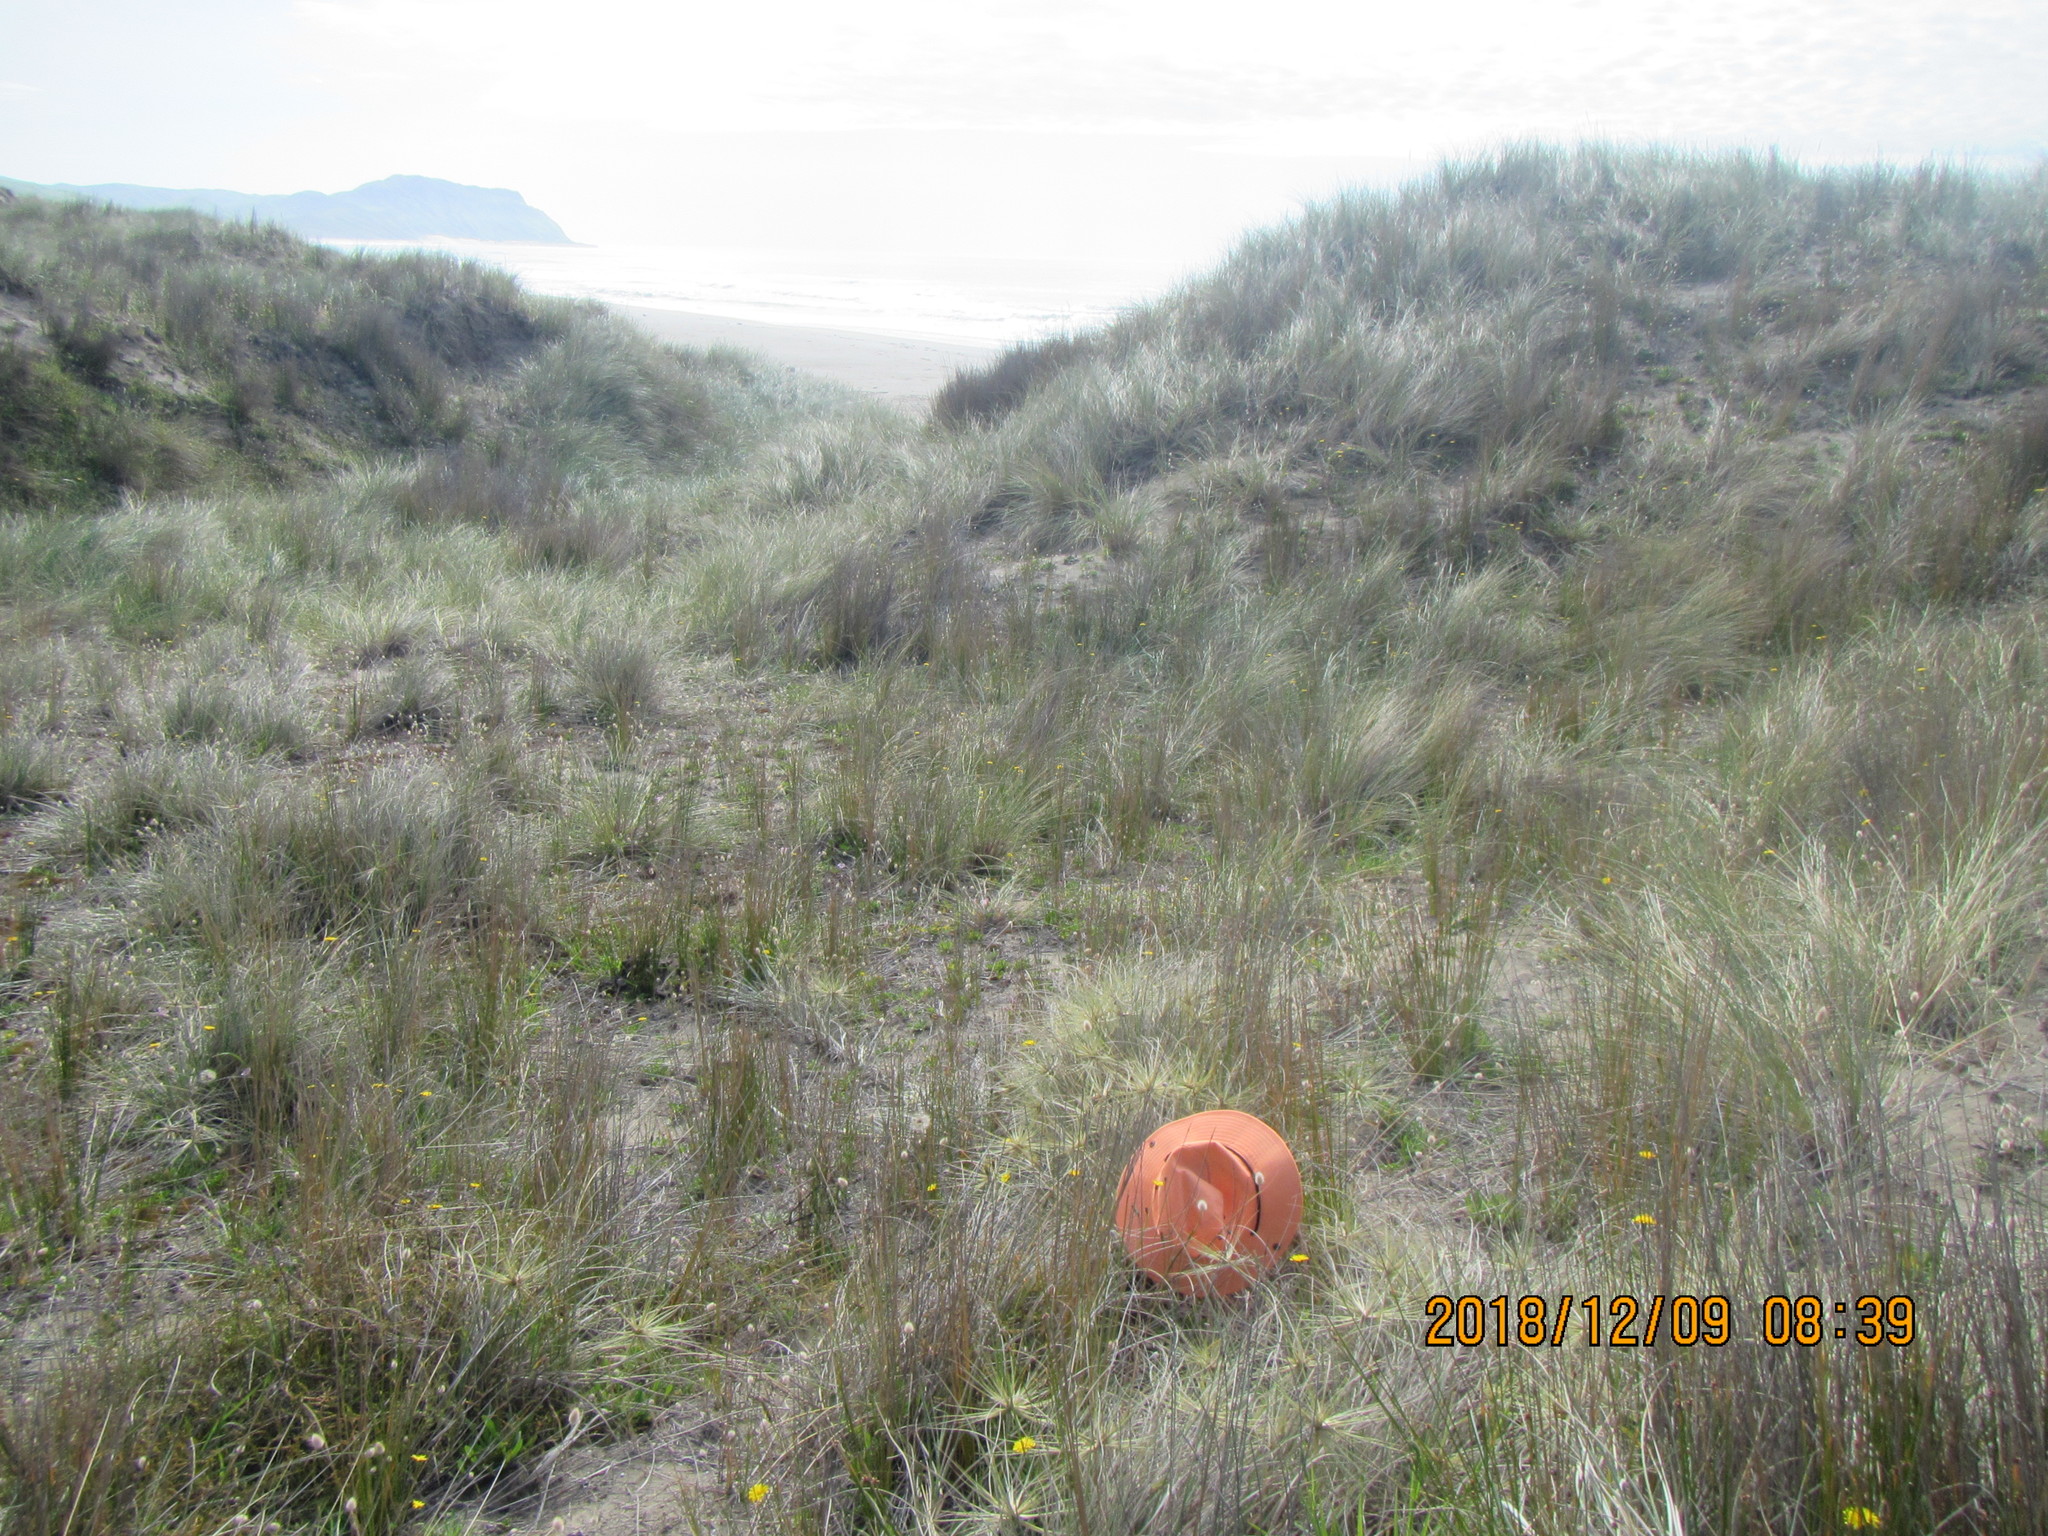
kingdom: Plantae
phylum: Tracheophyta
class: Liliopsida
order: Poales
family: Poaceae
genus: Spinifex
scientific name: Spinifex sericeus
